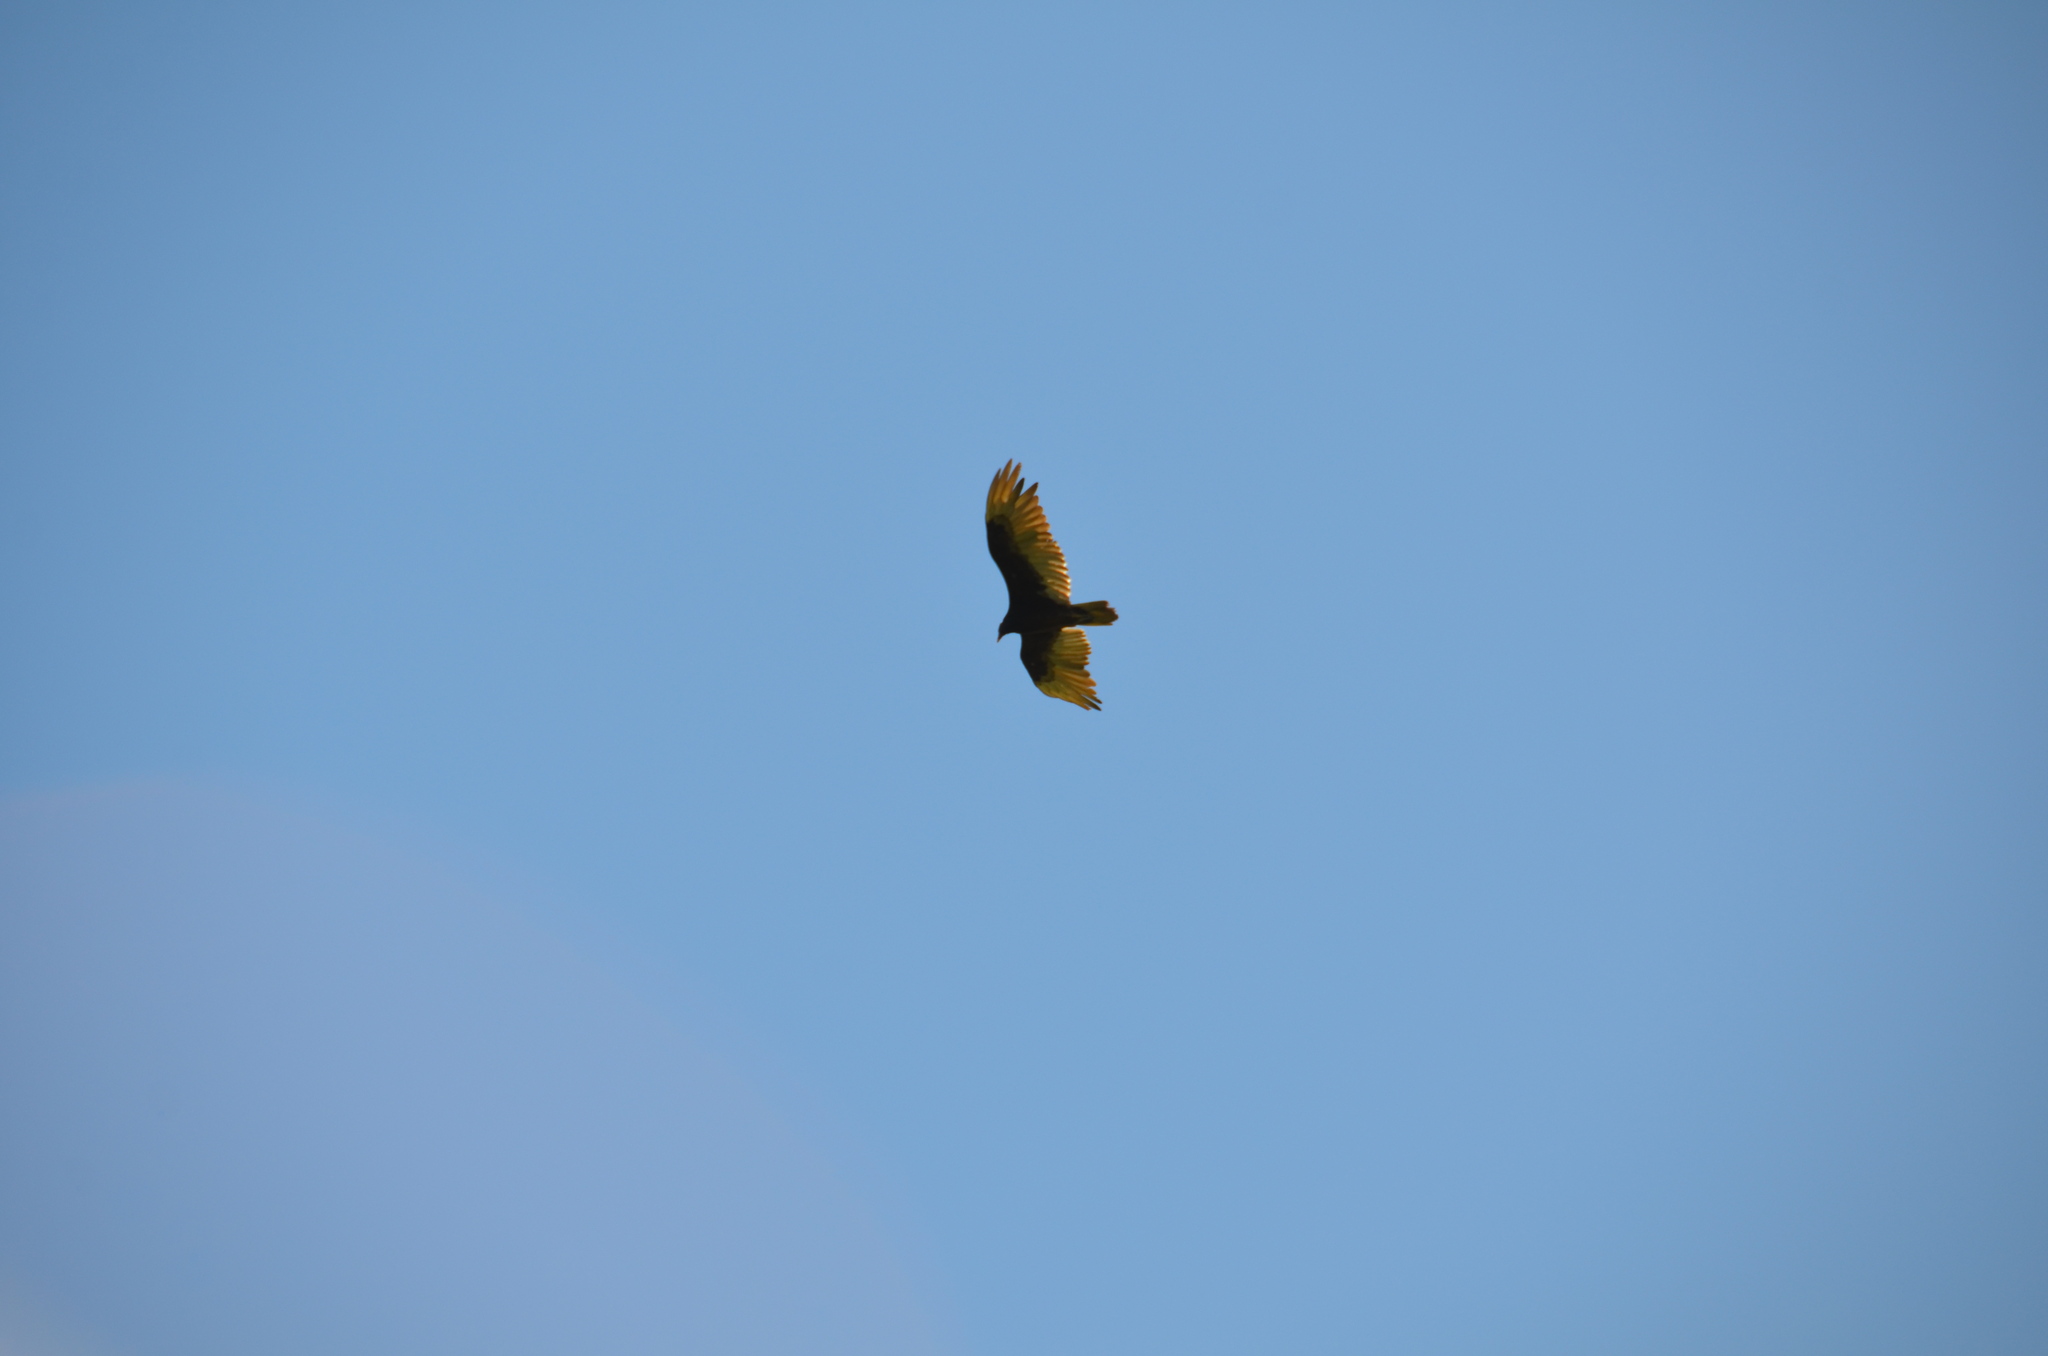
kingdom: Animalia
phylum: Chordata
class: Aves
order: Accipitriformes
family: Cathartidae
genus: Cathartes
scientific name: Cathartes aura
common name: Turkey vulture
